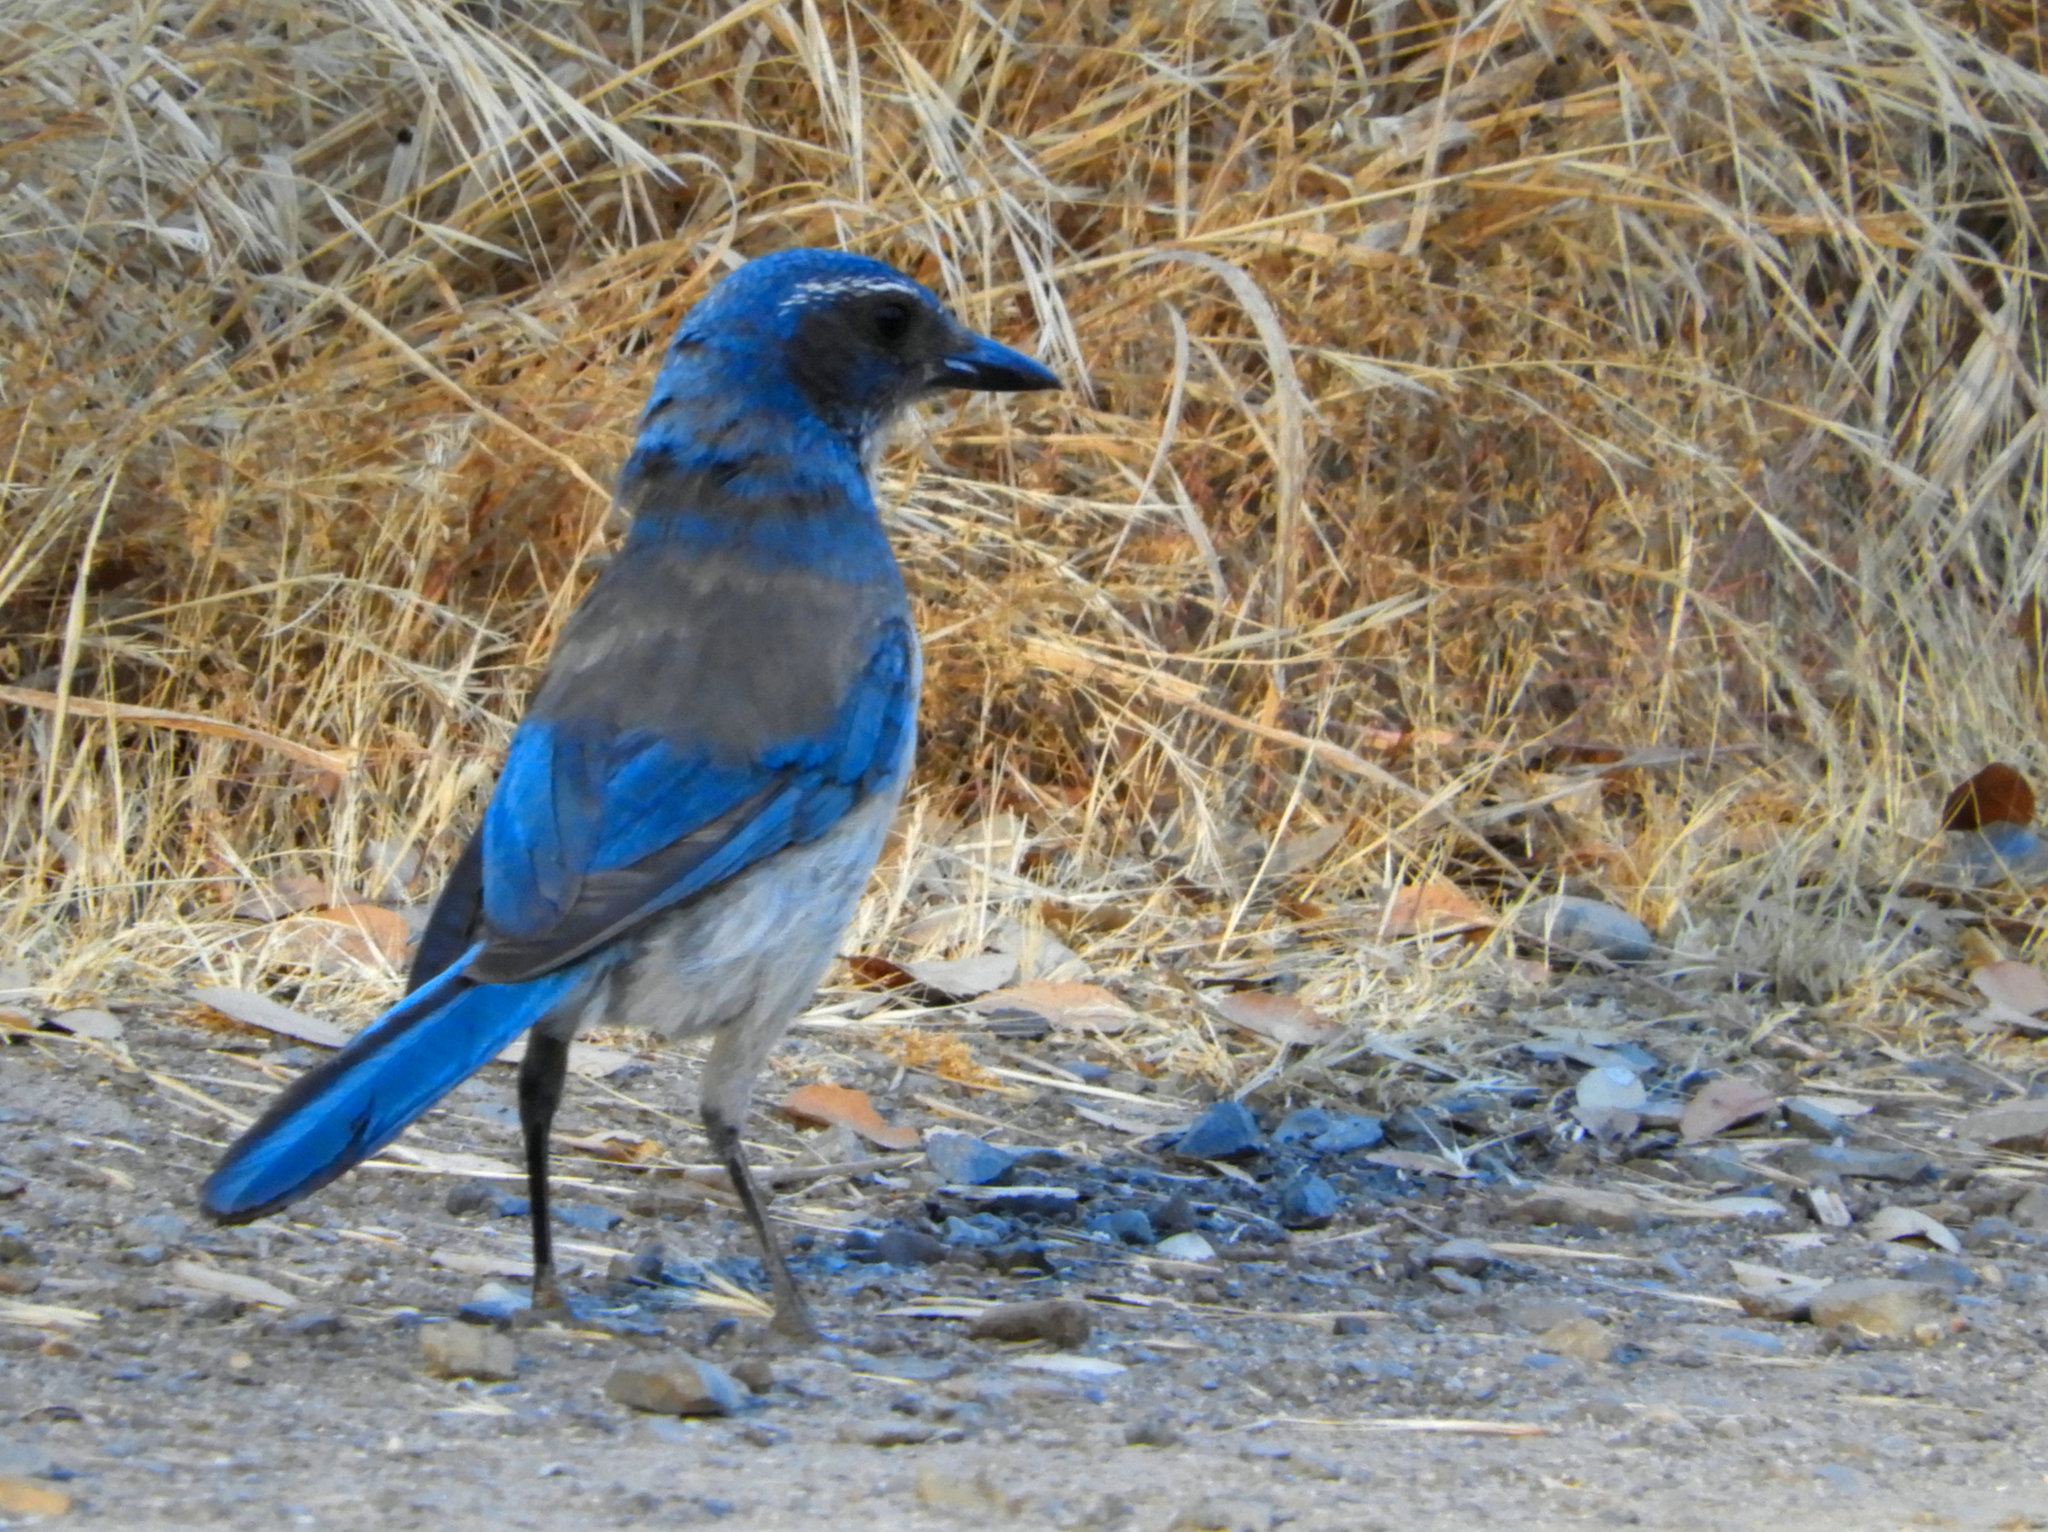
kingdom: Animalia
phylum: Chordata
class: Aves
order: Passeriformes
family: Corvidae
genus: Aphelocoma
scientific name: Aphelocoma californica
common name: California scrub-jay
